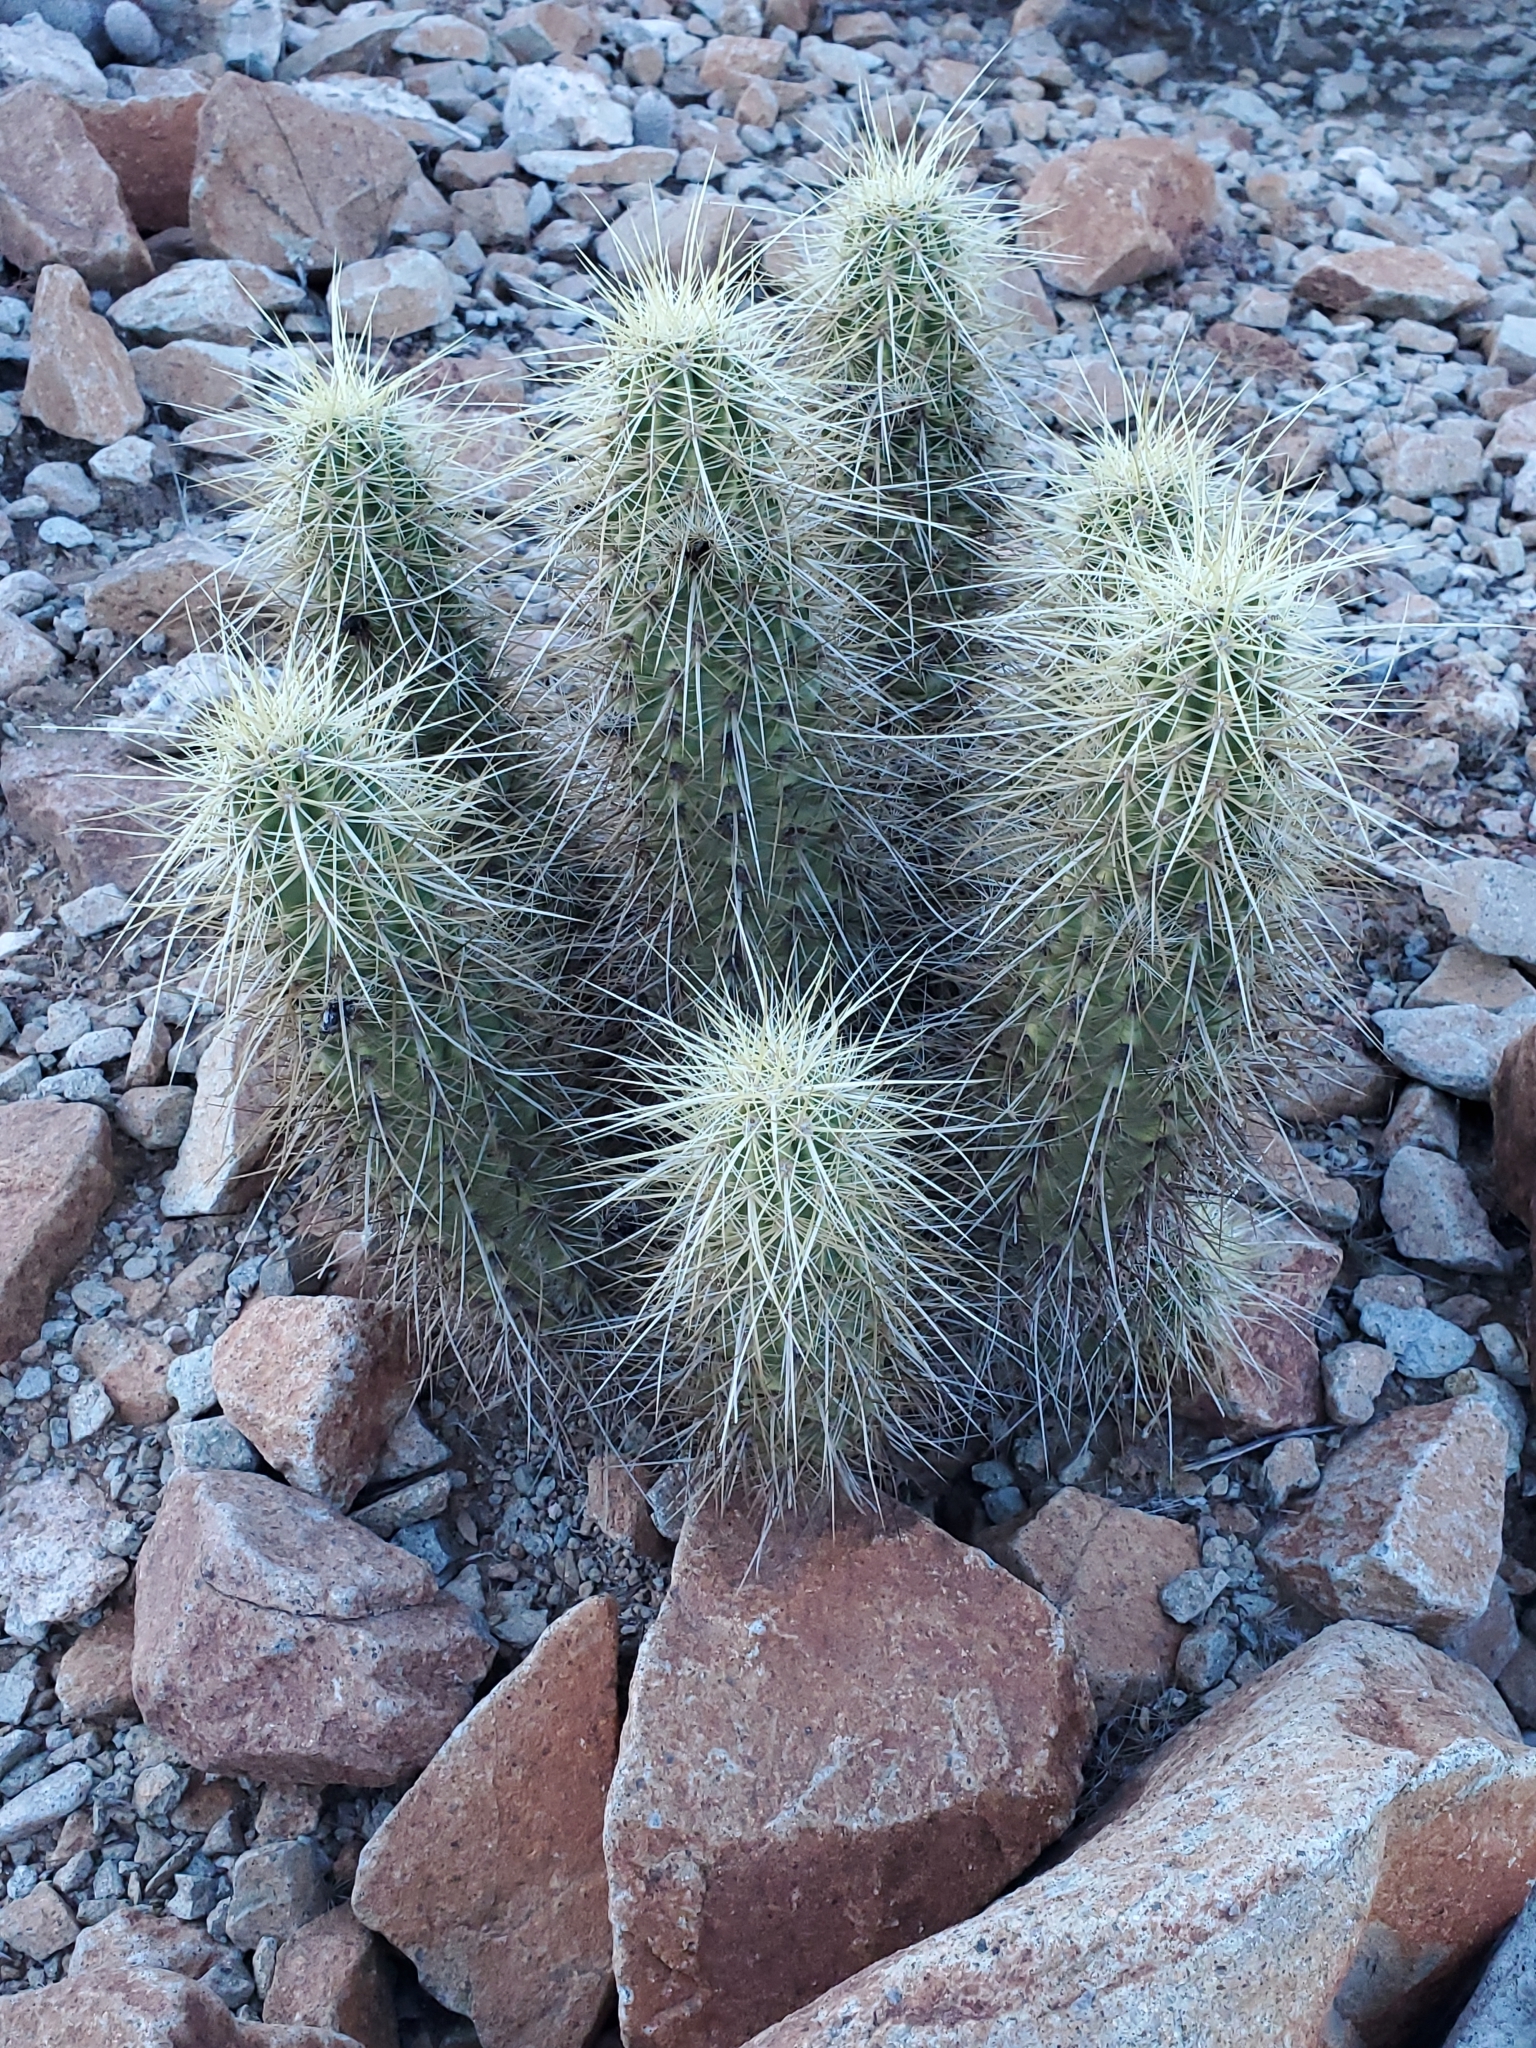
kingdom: Plantae
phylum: Tracheophyta
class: Magnoliopsida
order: Caryophyllales
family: Cactaceae
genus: Echinocereus
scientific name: Echinocereus nicholii
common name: Nichol's hedgehog cactus
